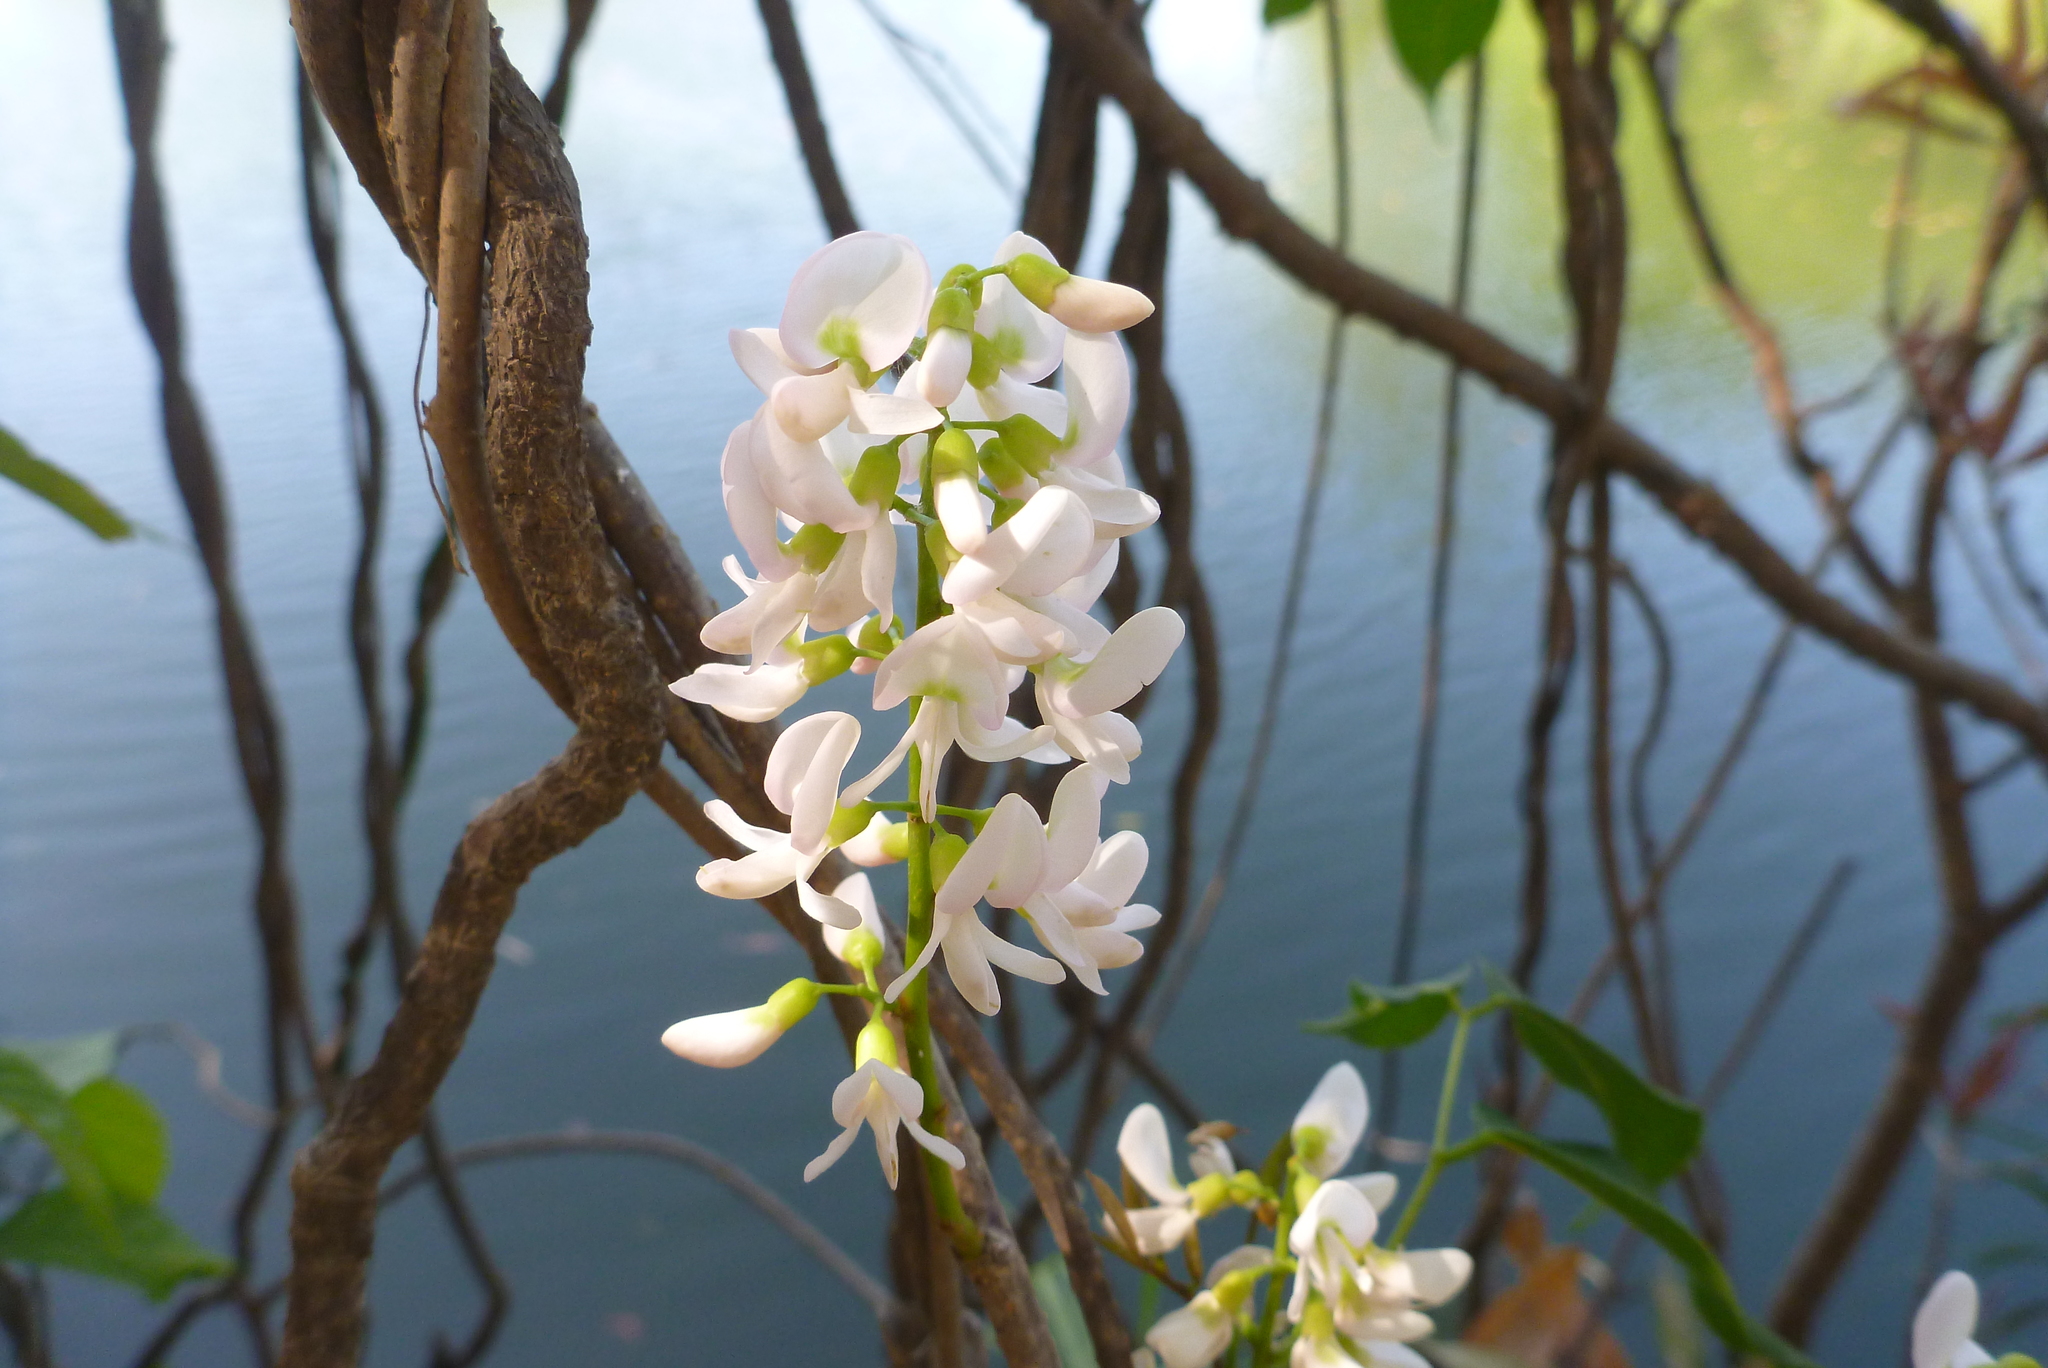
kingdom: Plantae
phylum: Tracheophyta
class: Magnoliopsida
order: Fabales
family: Fabaceae
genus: Derris
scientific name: Derris trifoliata
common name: Three-leaf derris
